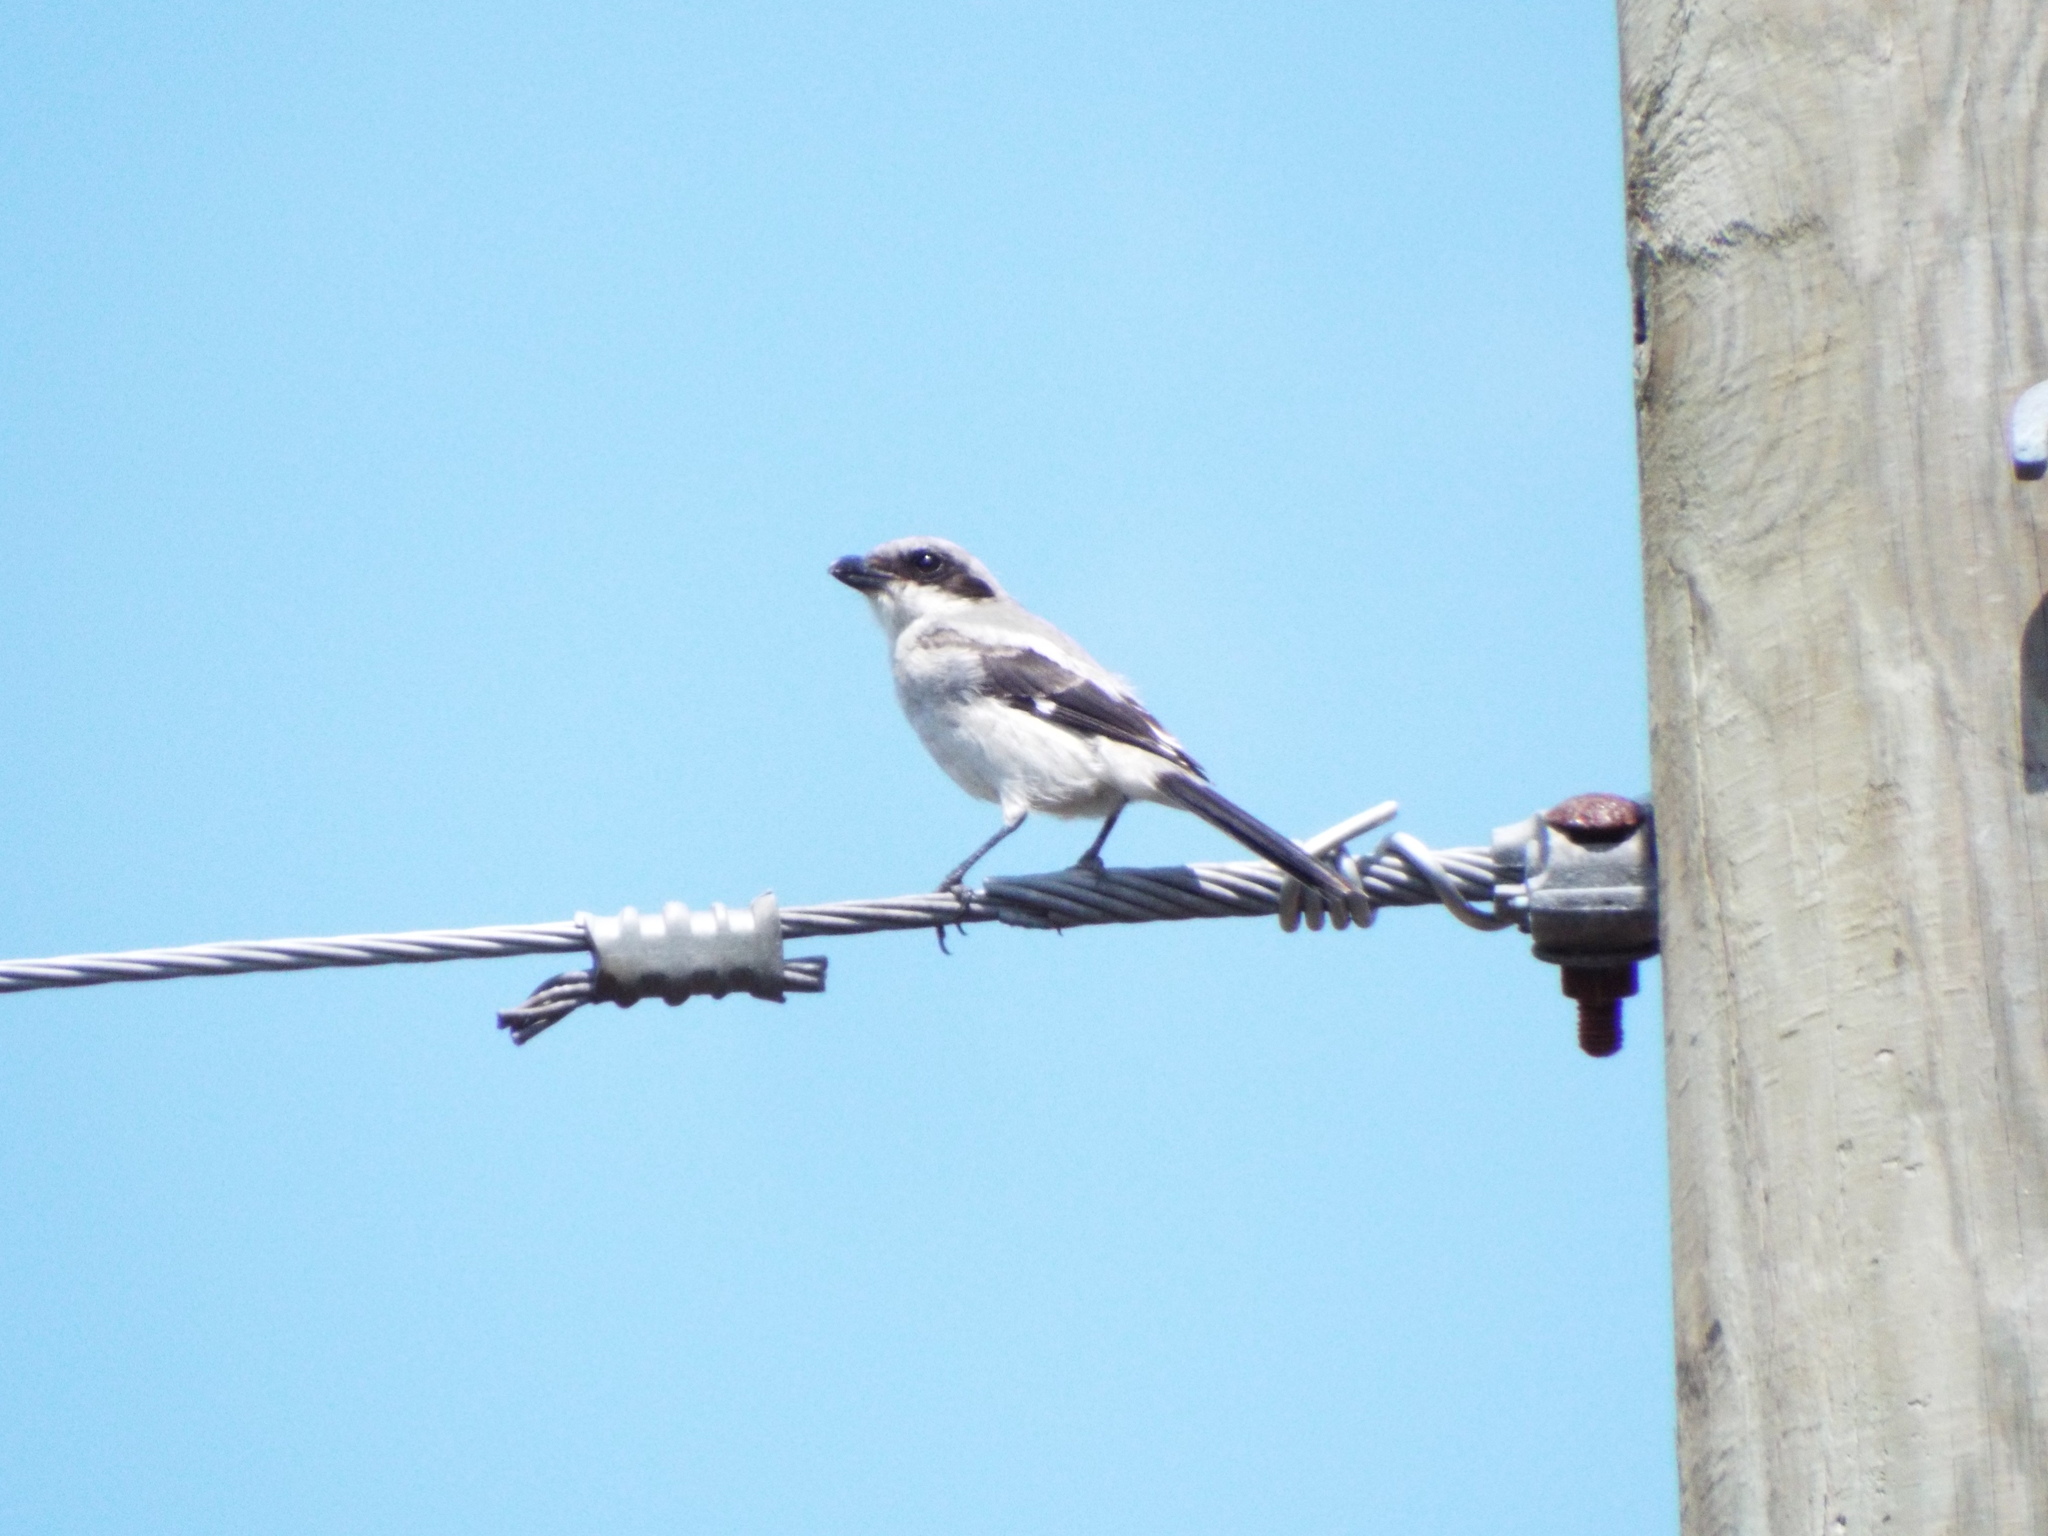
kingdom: Animalia
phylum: Chordata
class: Aves
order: Passeriformes
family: Laniidae
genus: Lanius
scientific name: Lanius ludovicianus
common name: Loggerhead shrike
